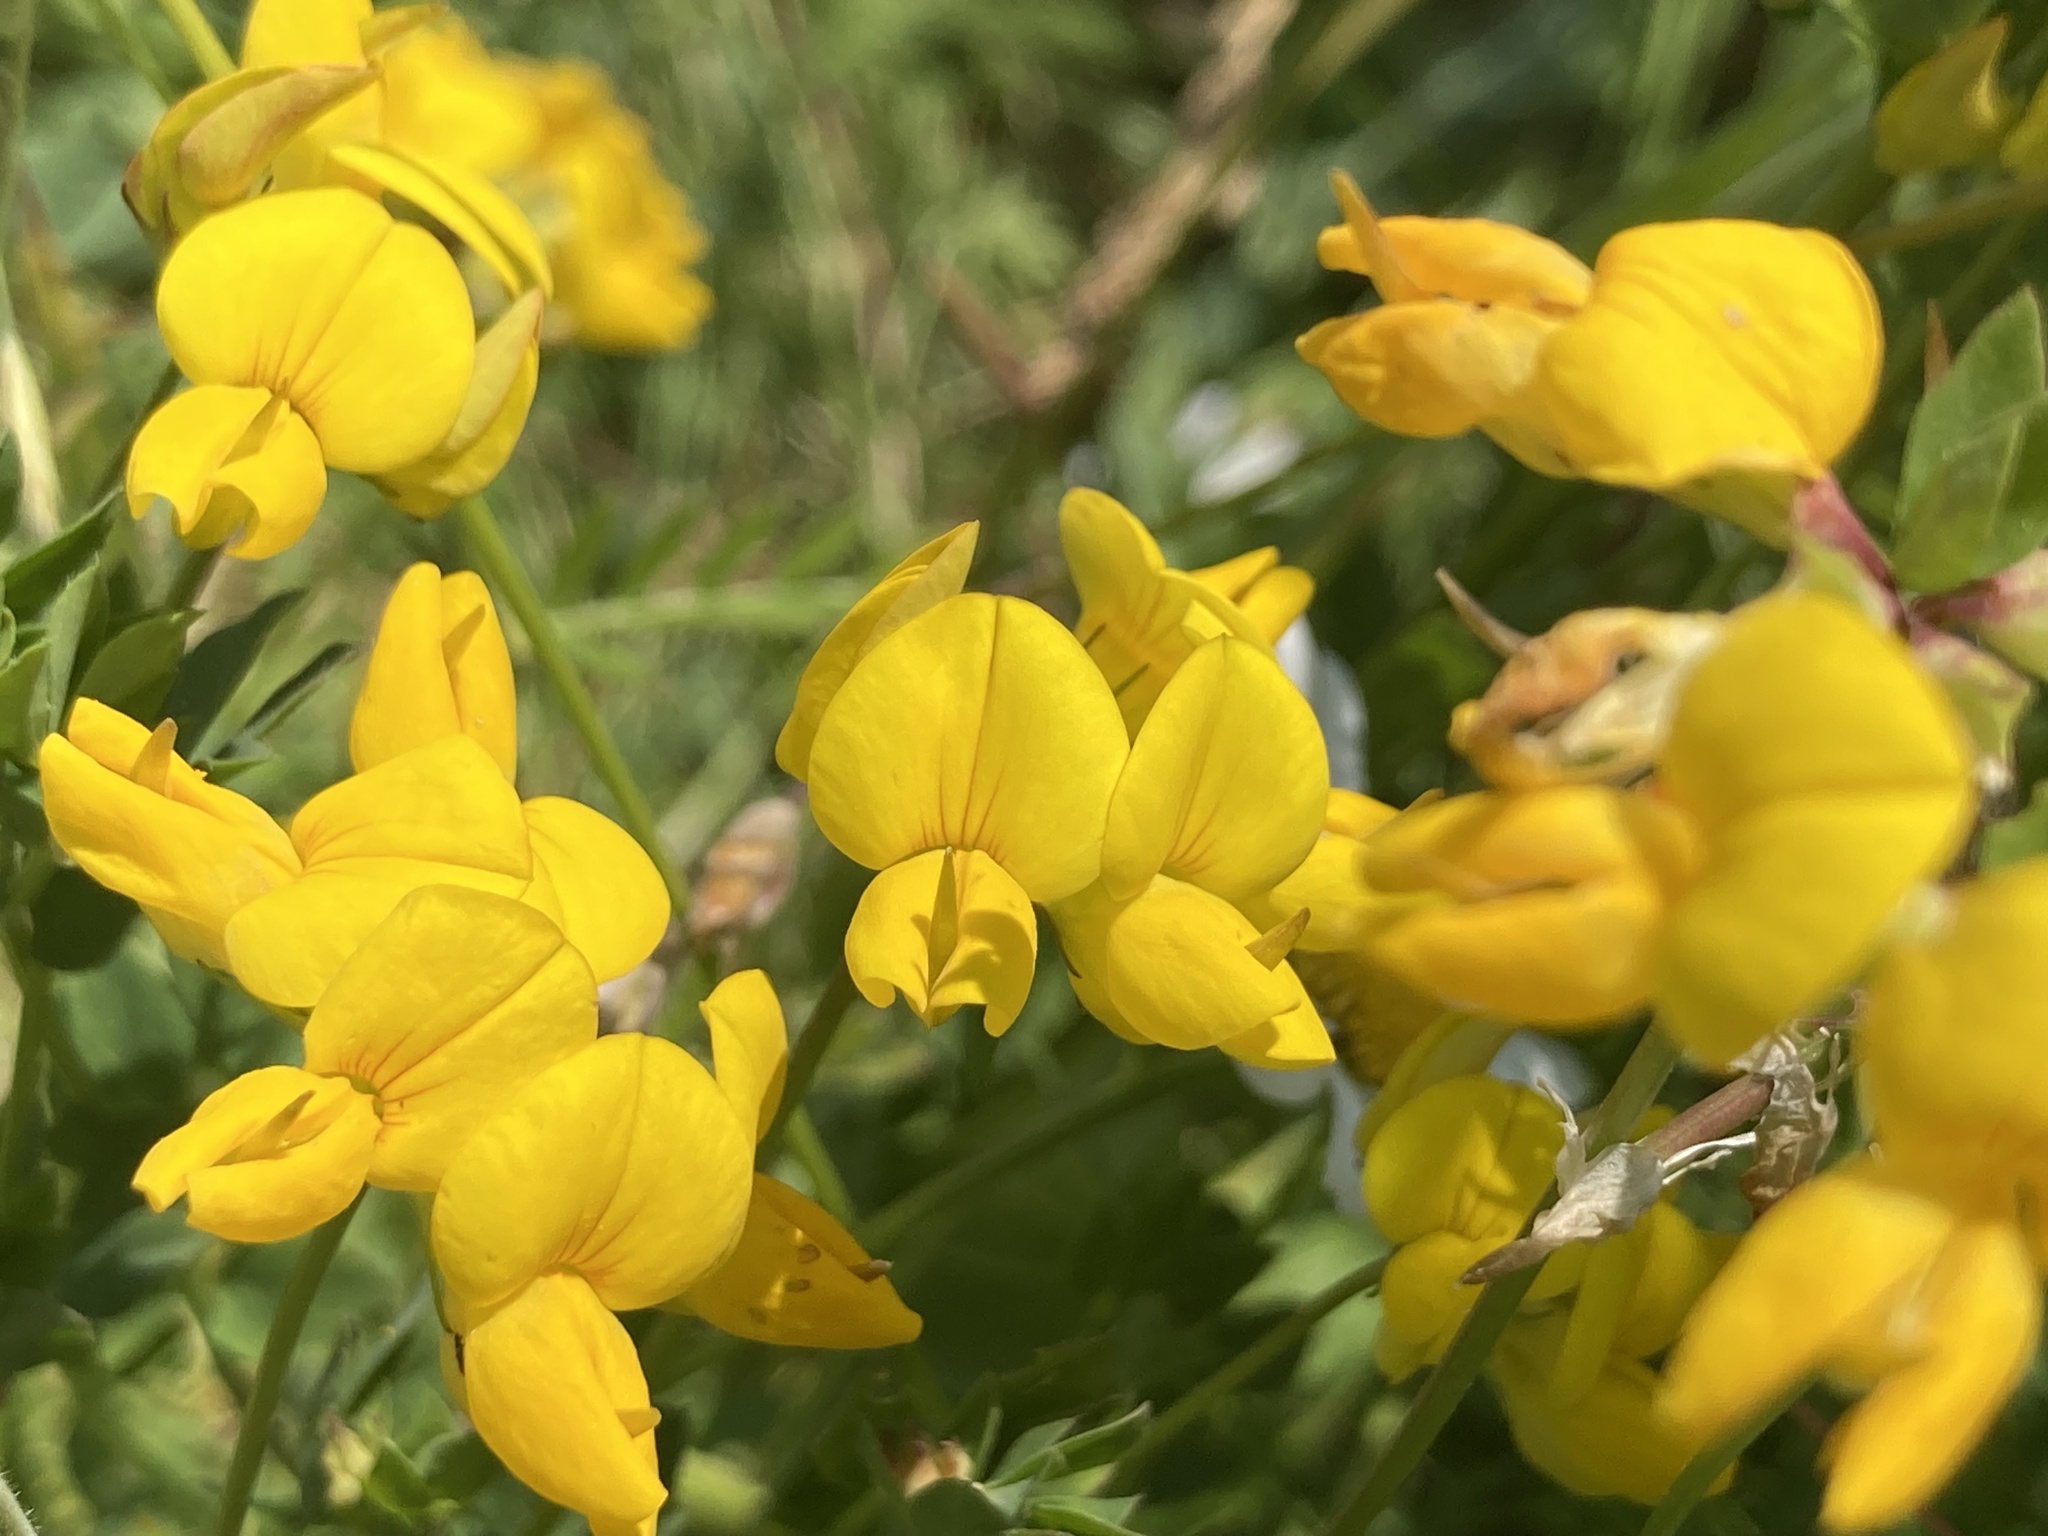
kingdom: Plantae
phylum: Tracheophyta
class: Magnoliopsida
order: Fabales
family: Fabaceae
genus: Lotus
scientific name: Lotus corniculatus
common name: Common bird's-foot-trefoil
